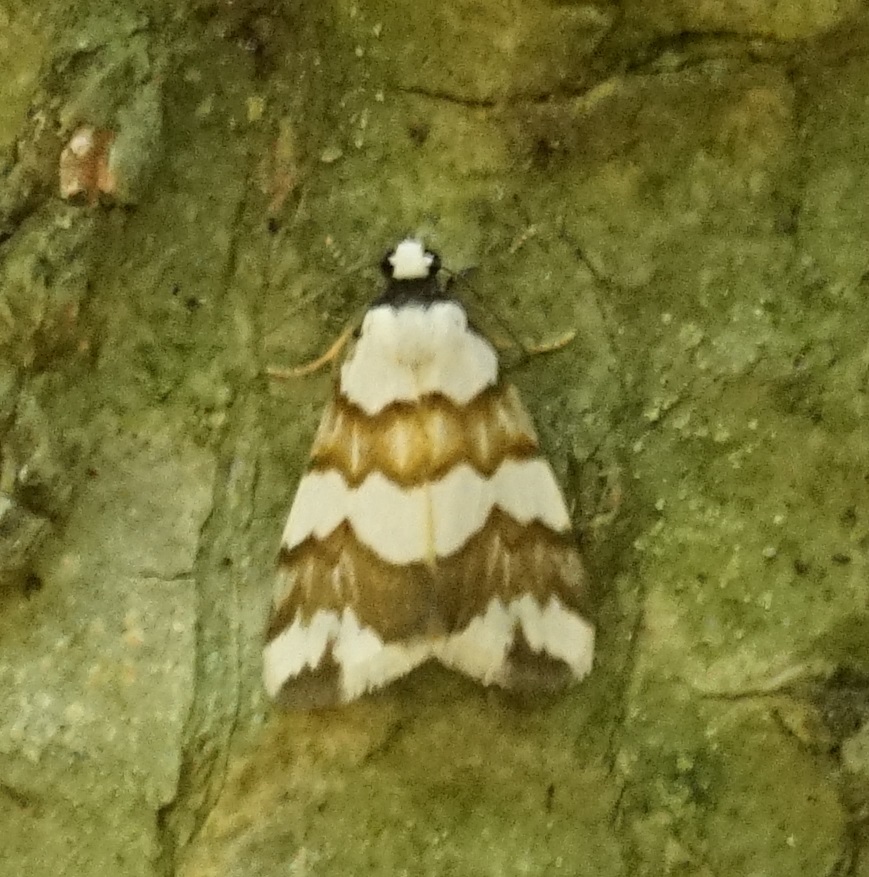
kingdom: Animalia
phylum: Arthropoda
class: Insecta
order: Lepidoptera
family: Erebidae
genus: Termessa
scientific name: Termessa gratiosa
